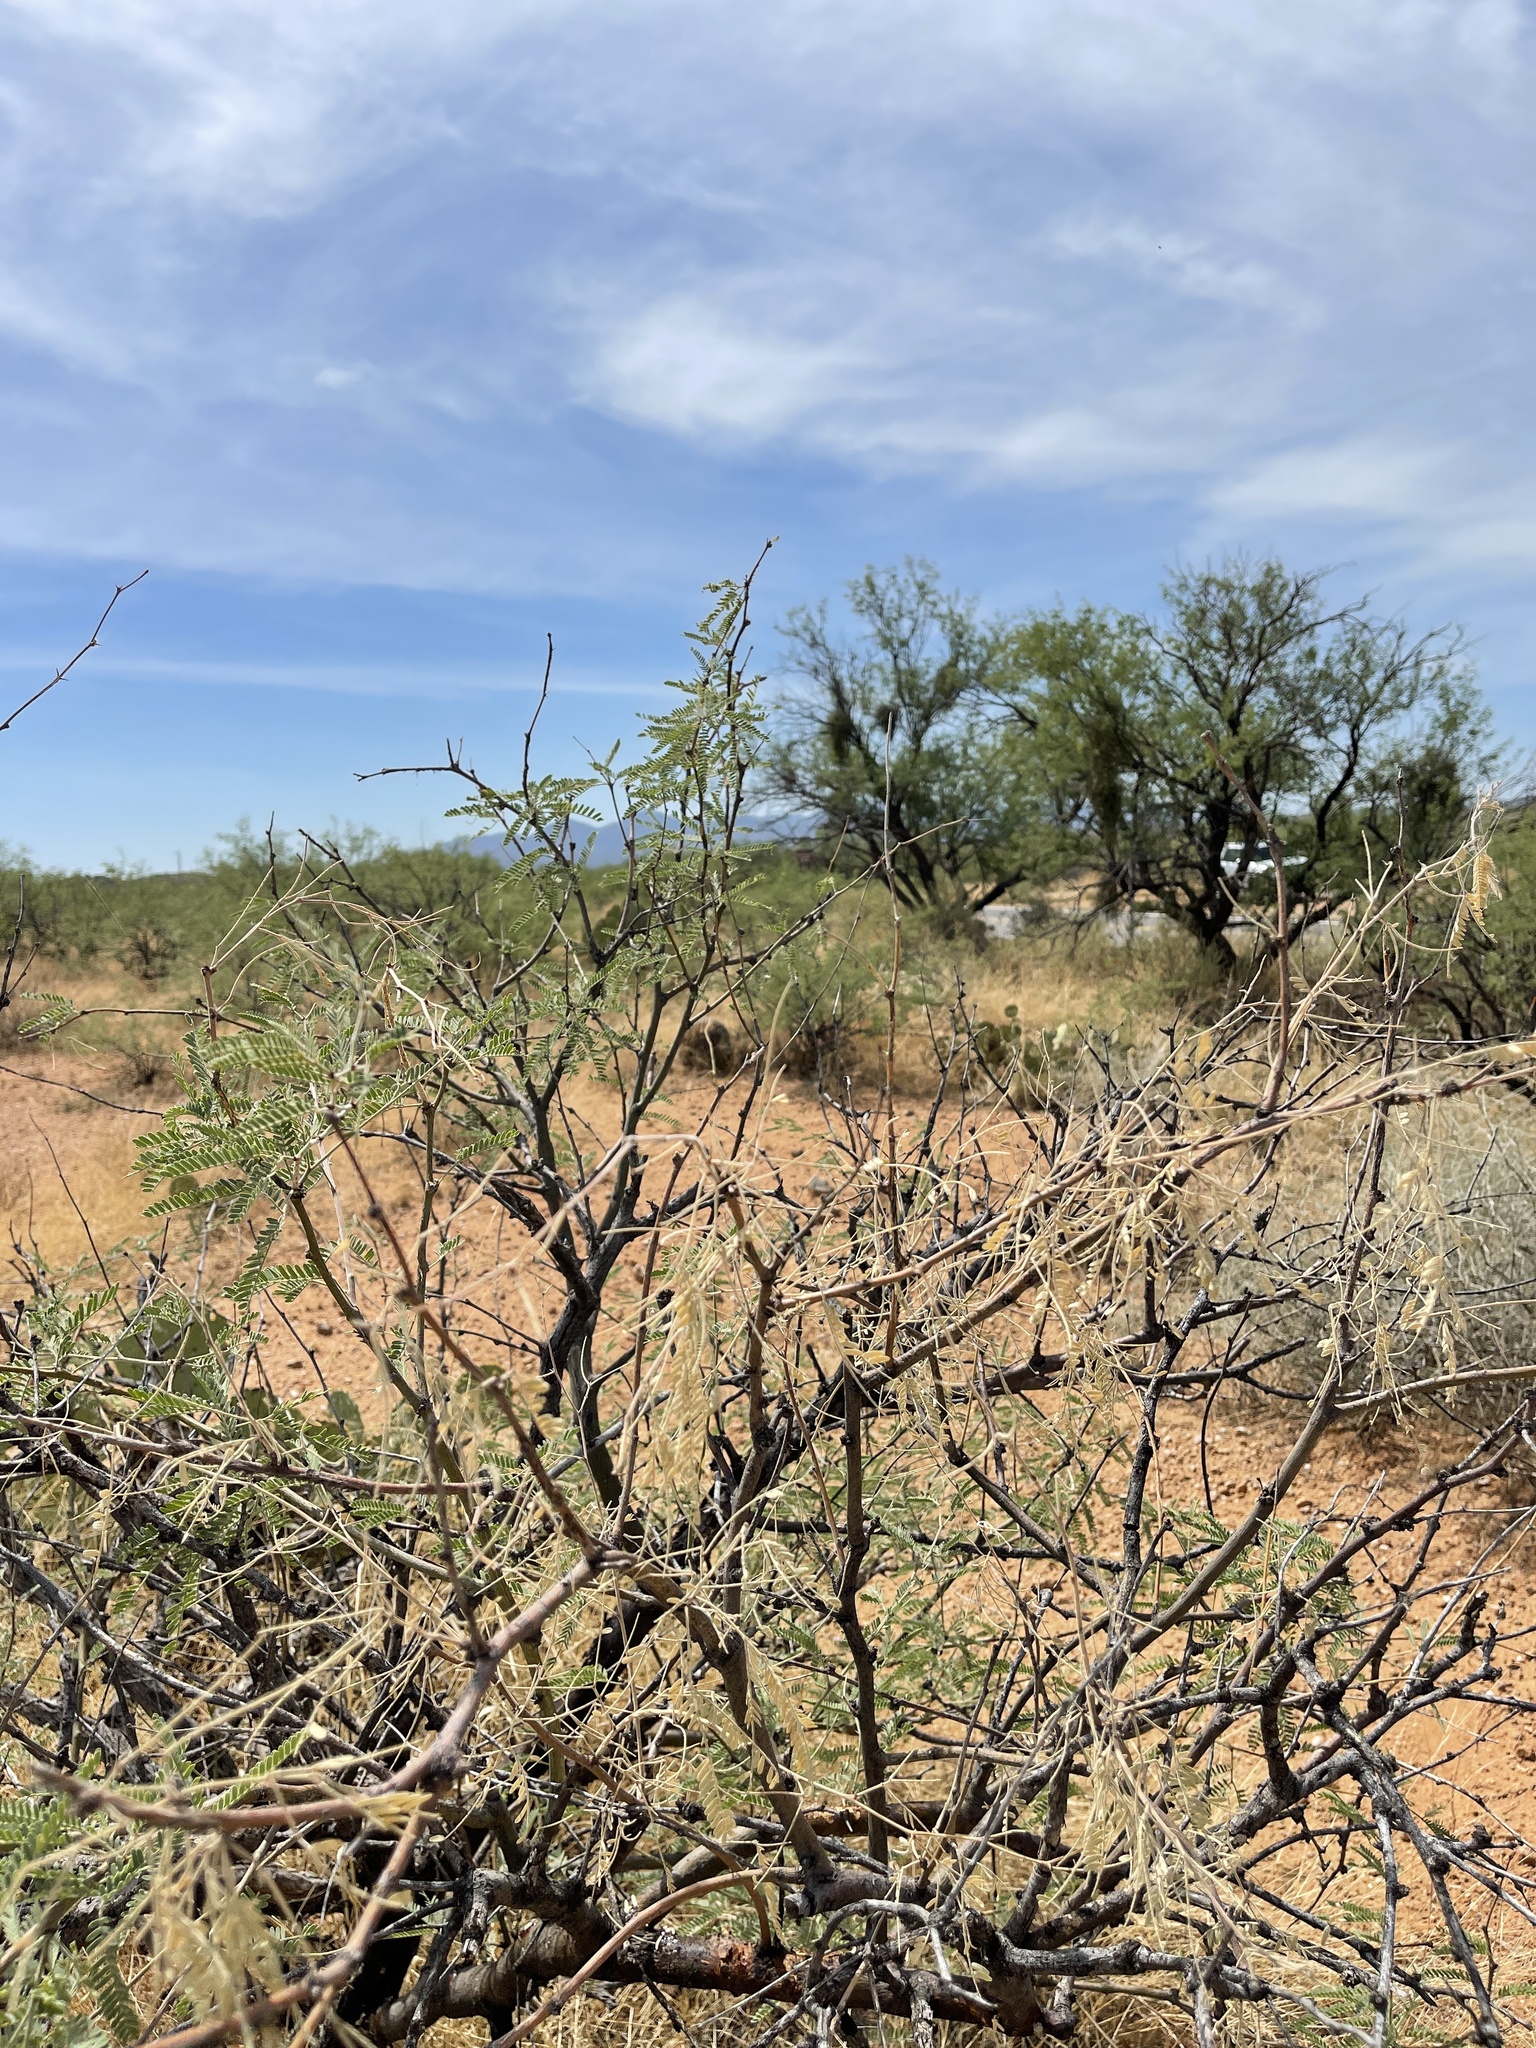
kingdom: Plantae
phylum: Tracheophyta
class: Magnoliopsida
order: Fabales
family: Fabaceae
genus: Prosopis
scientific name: Prosopis velutina
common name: Velvet mesquite
